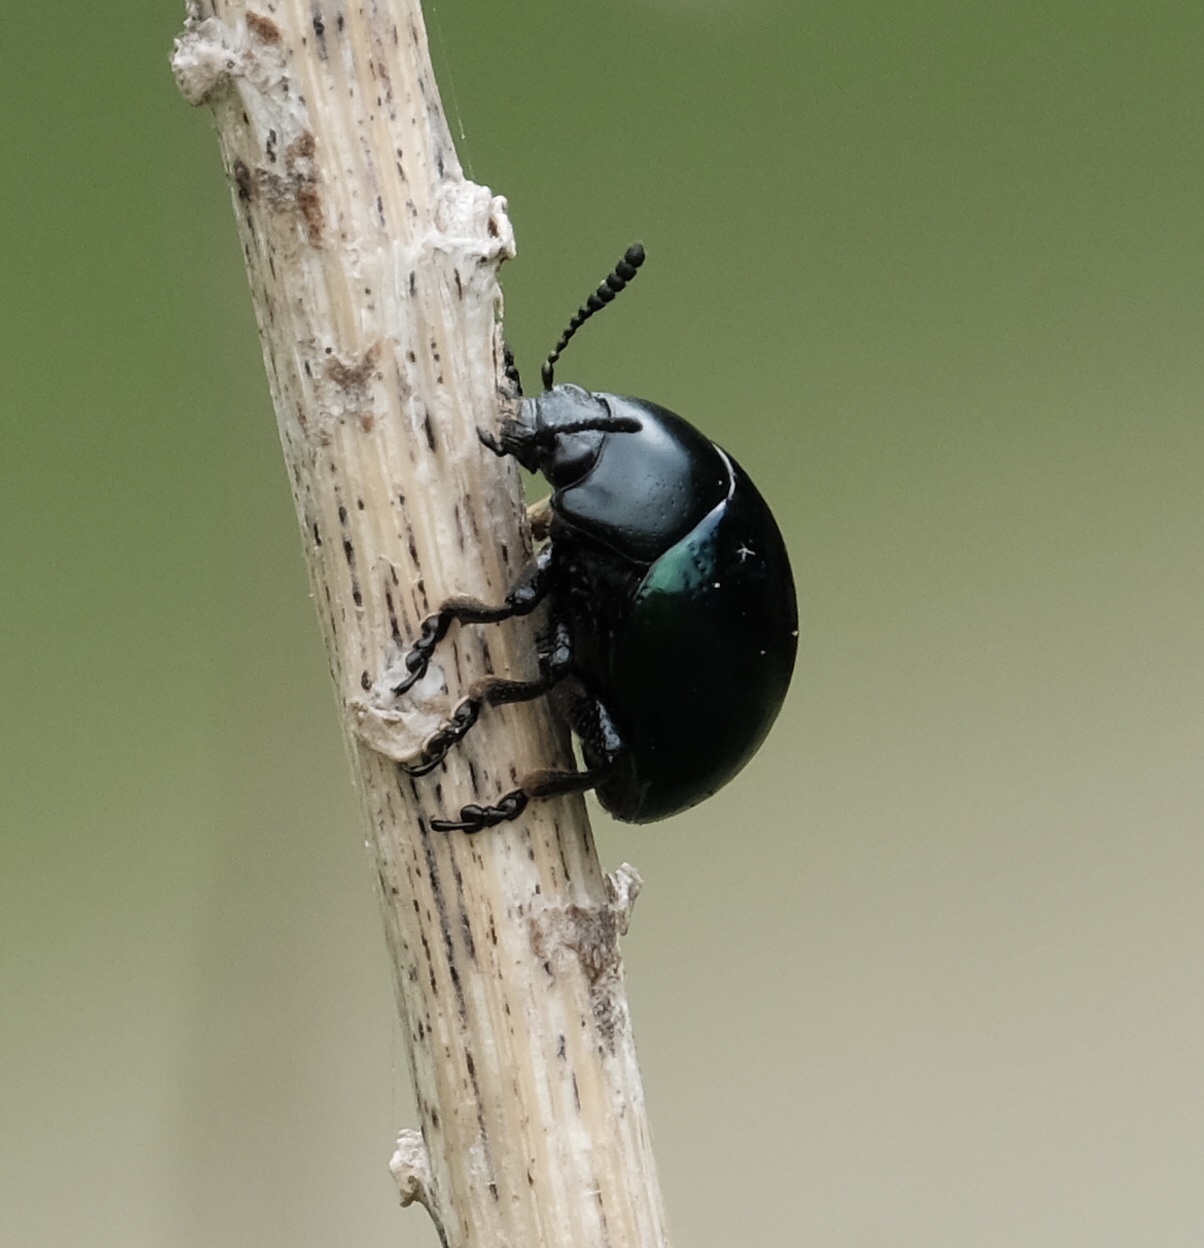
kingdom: Animalia
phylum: Arthropoda
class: Insecta
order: Coleoptera
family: Chrysomelidae
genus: Leptinotarsa
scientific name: Leptinotarsa haldemani
